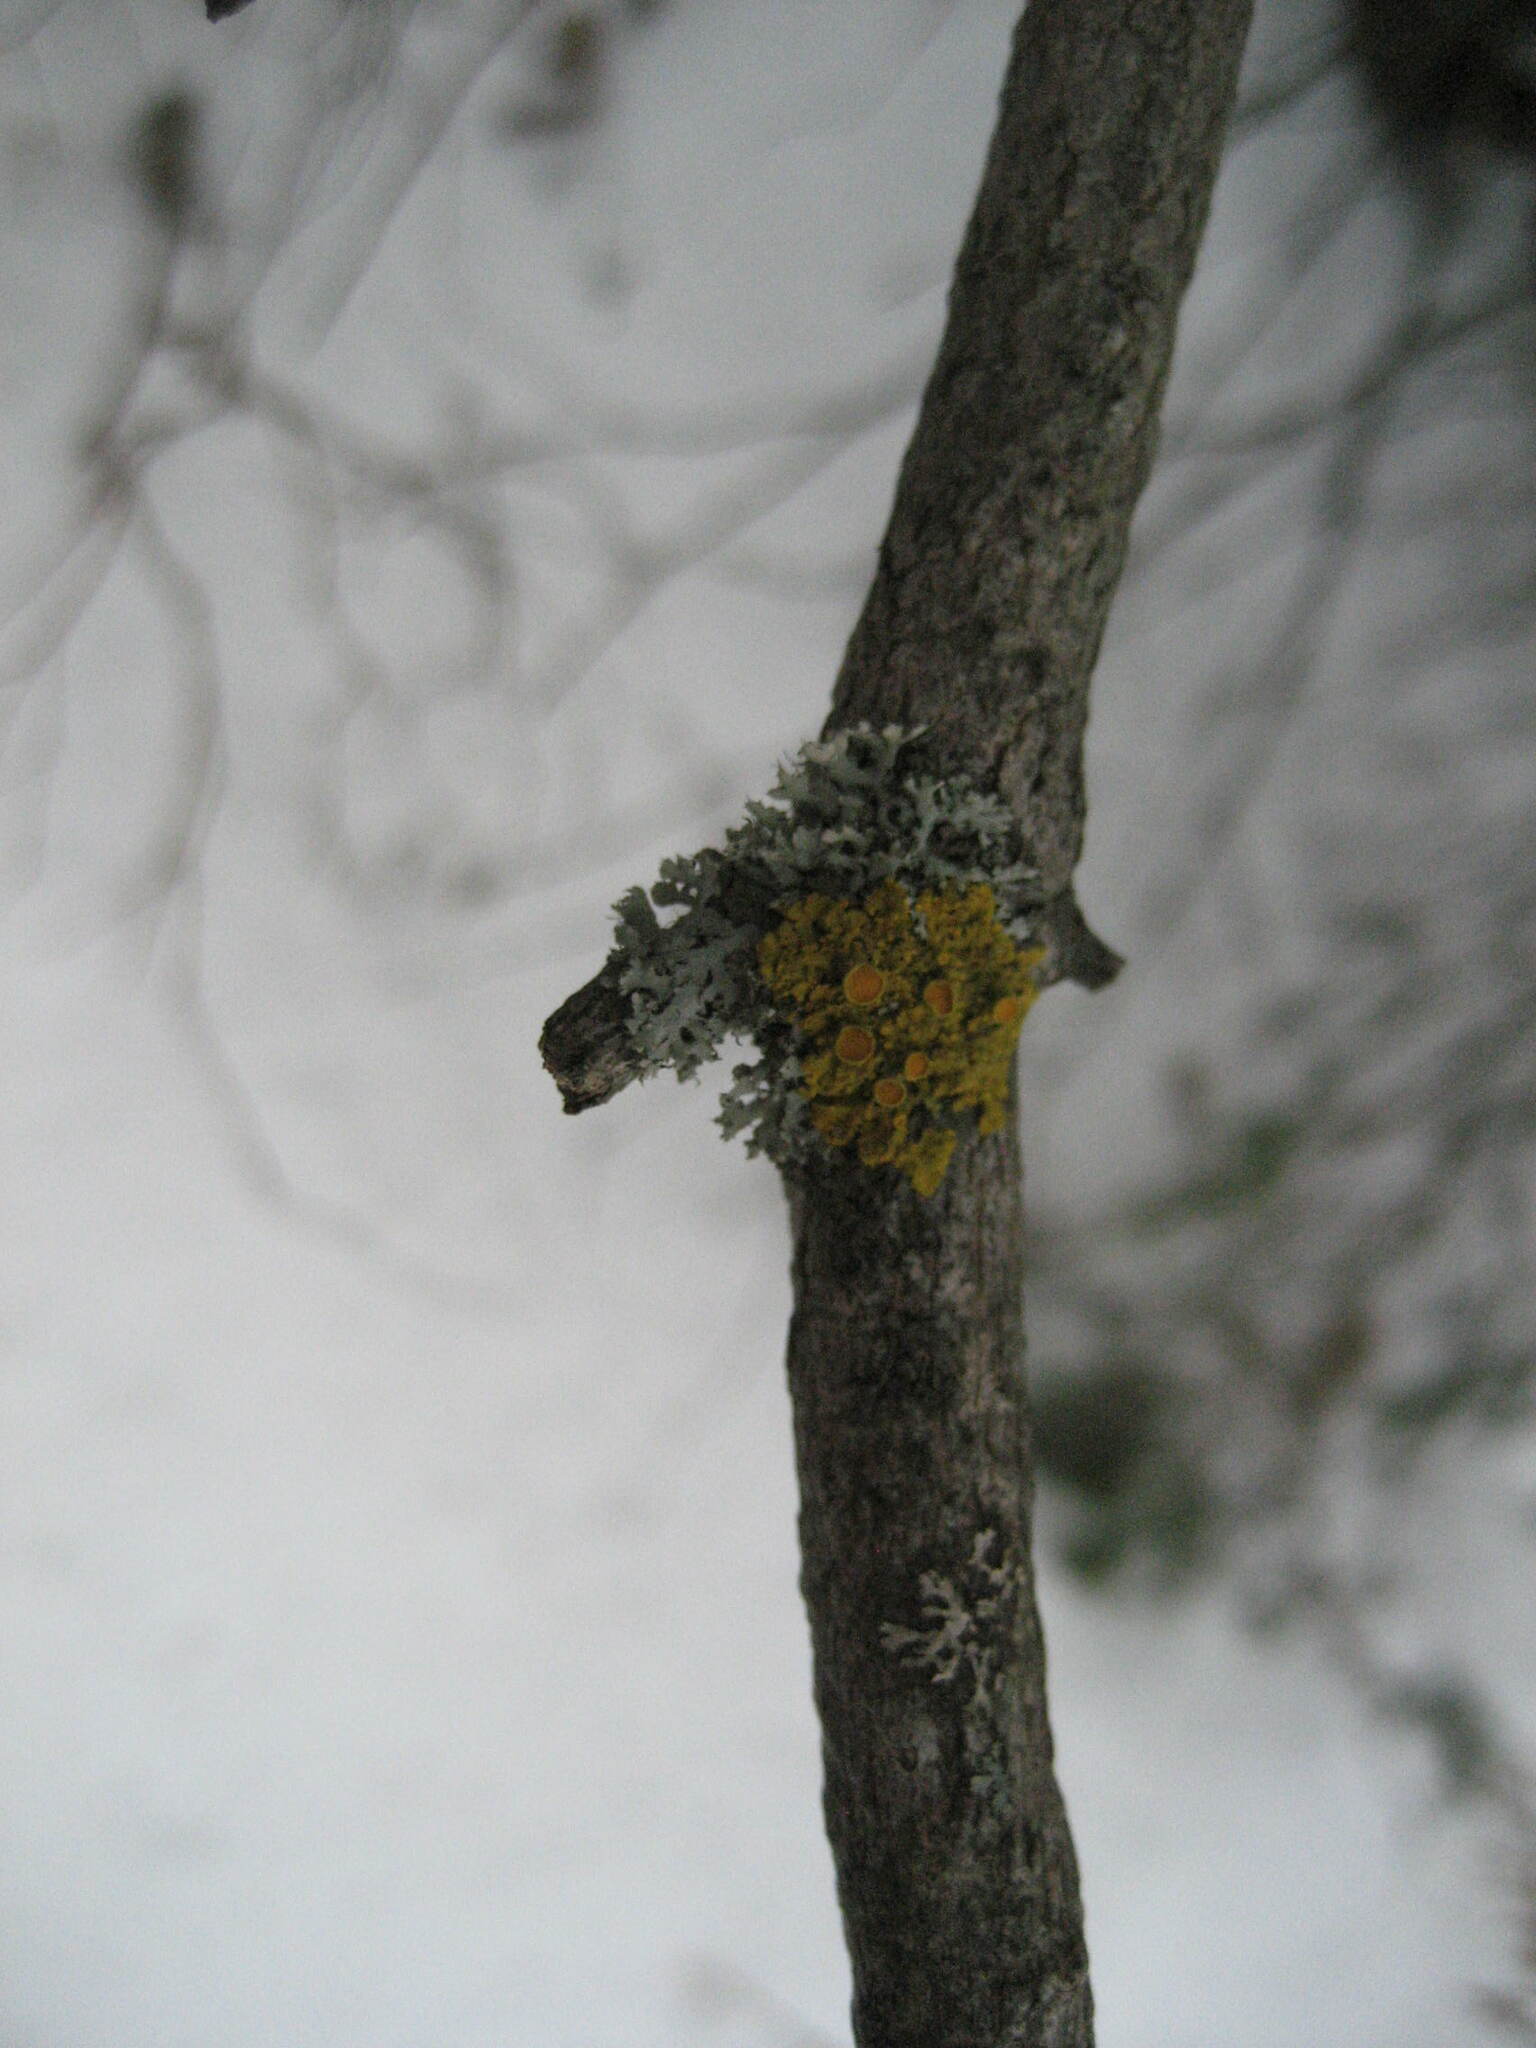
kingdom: Plantae
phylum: Tracheophyta
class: Magnoliopsida
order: Sapindales
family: Sapindaceae
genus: Acer
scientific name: Acer saccharum
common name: Sugar maple
